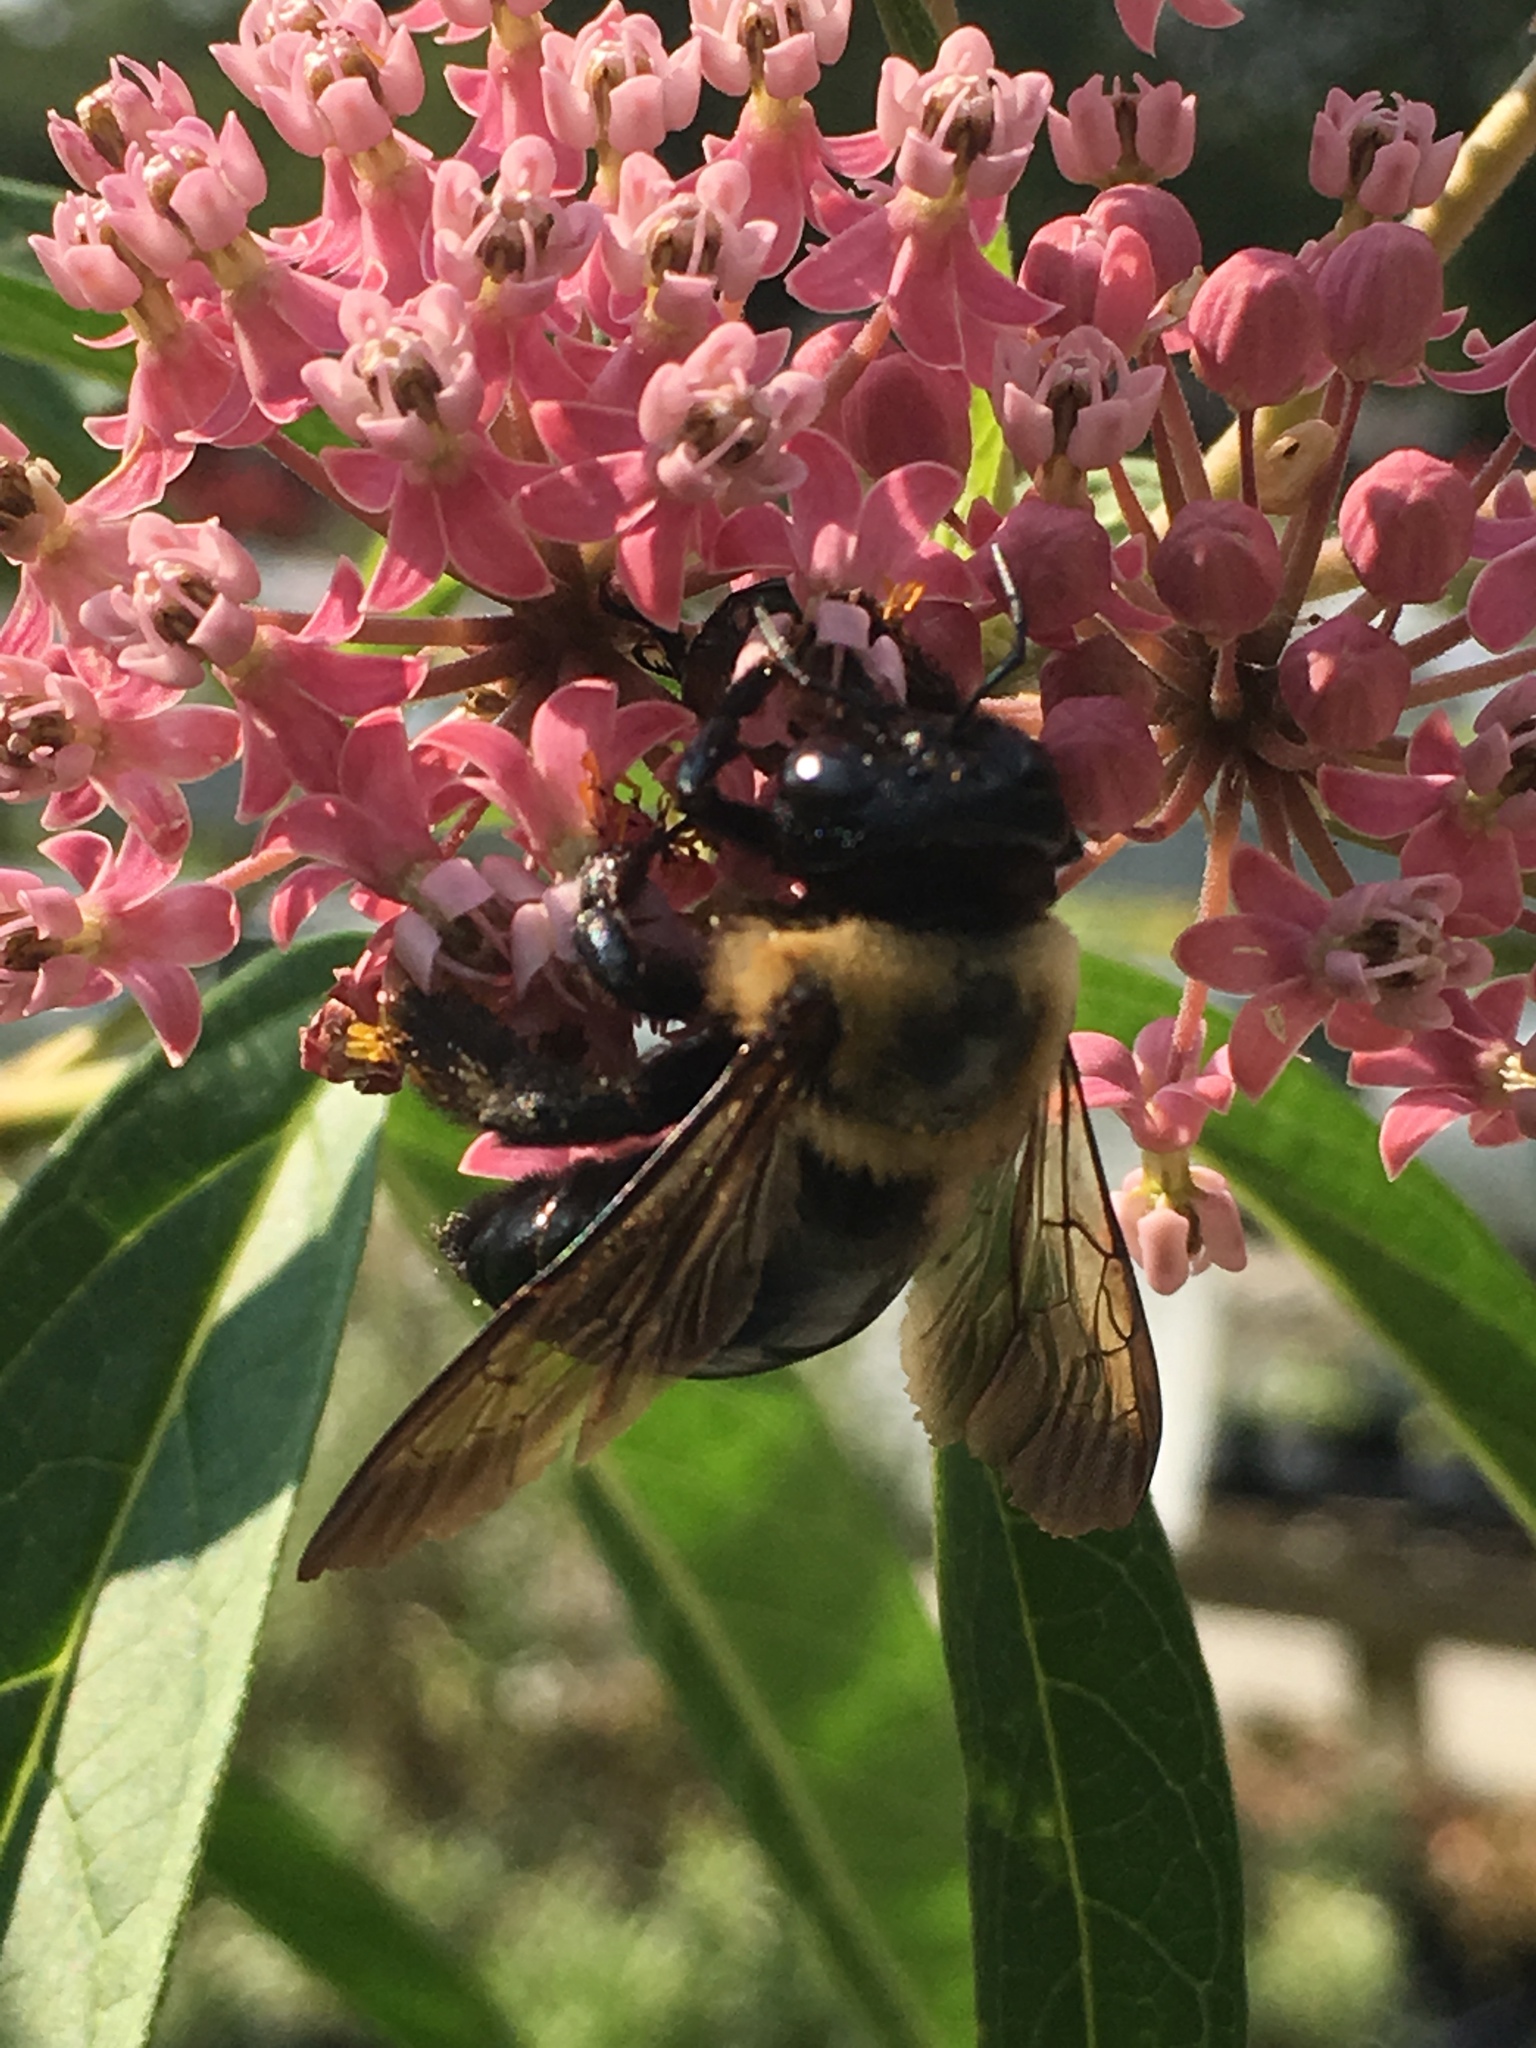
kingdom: Animalia
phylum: Arthropoda
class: Insecta
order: Hymenoptera
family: Apidae
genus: Xylocopa
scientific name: Xylocopa virginica
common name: Carpenter bee
